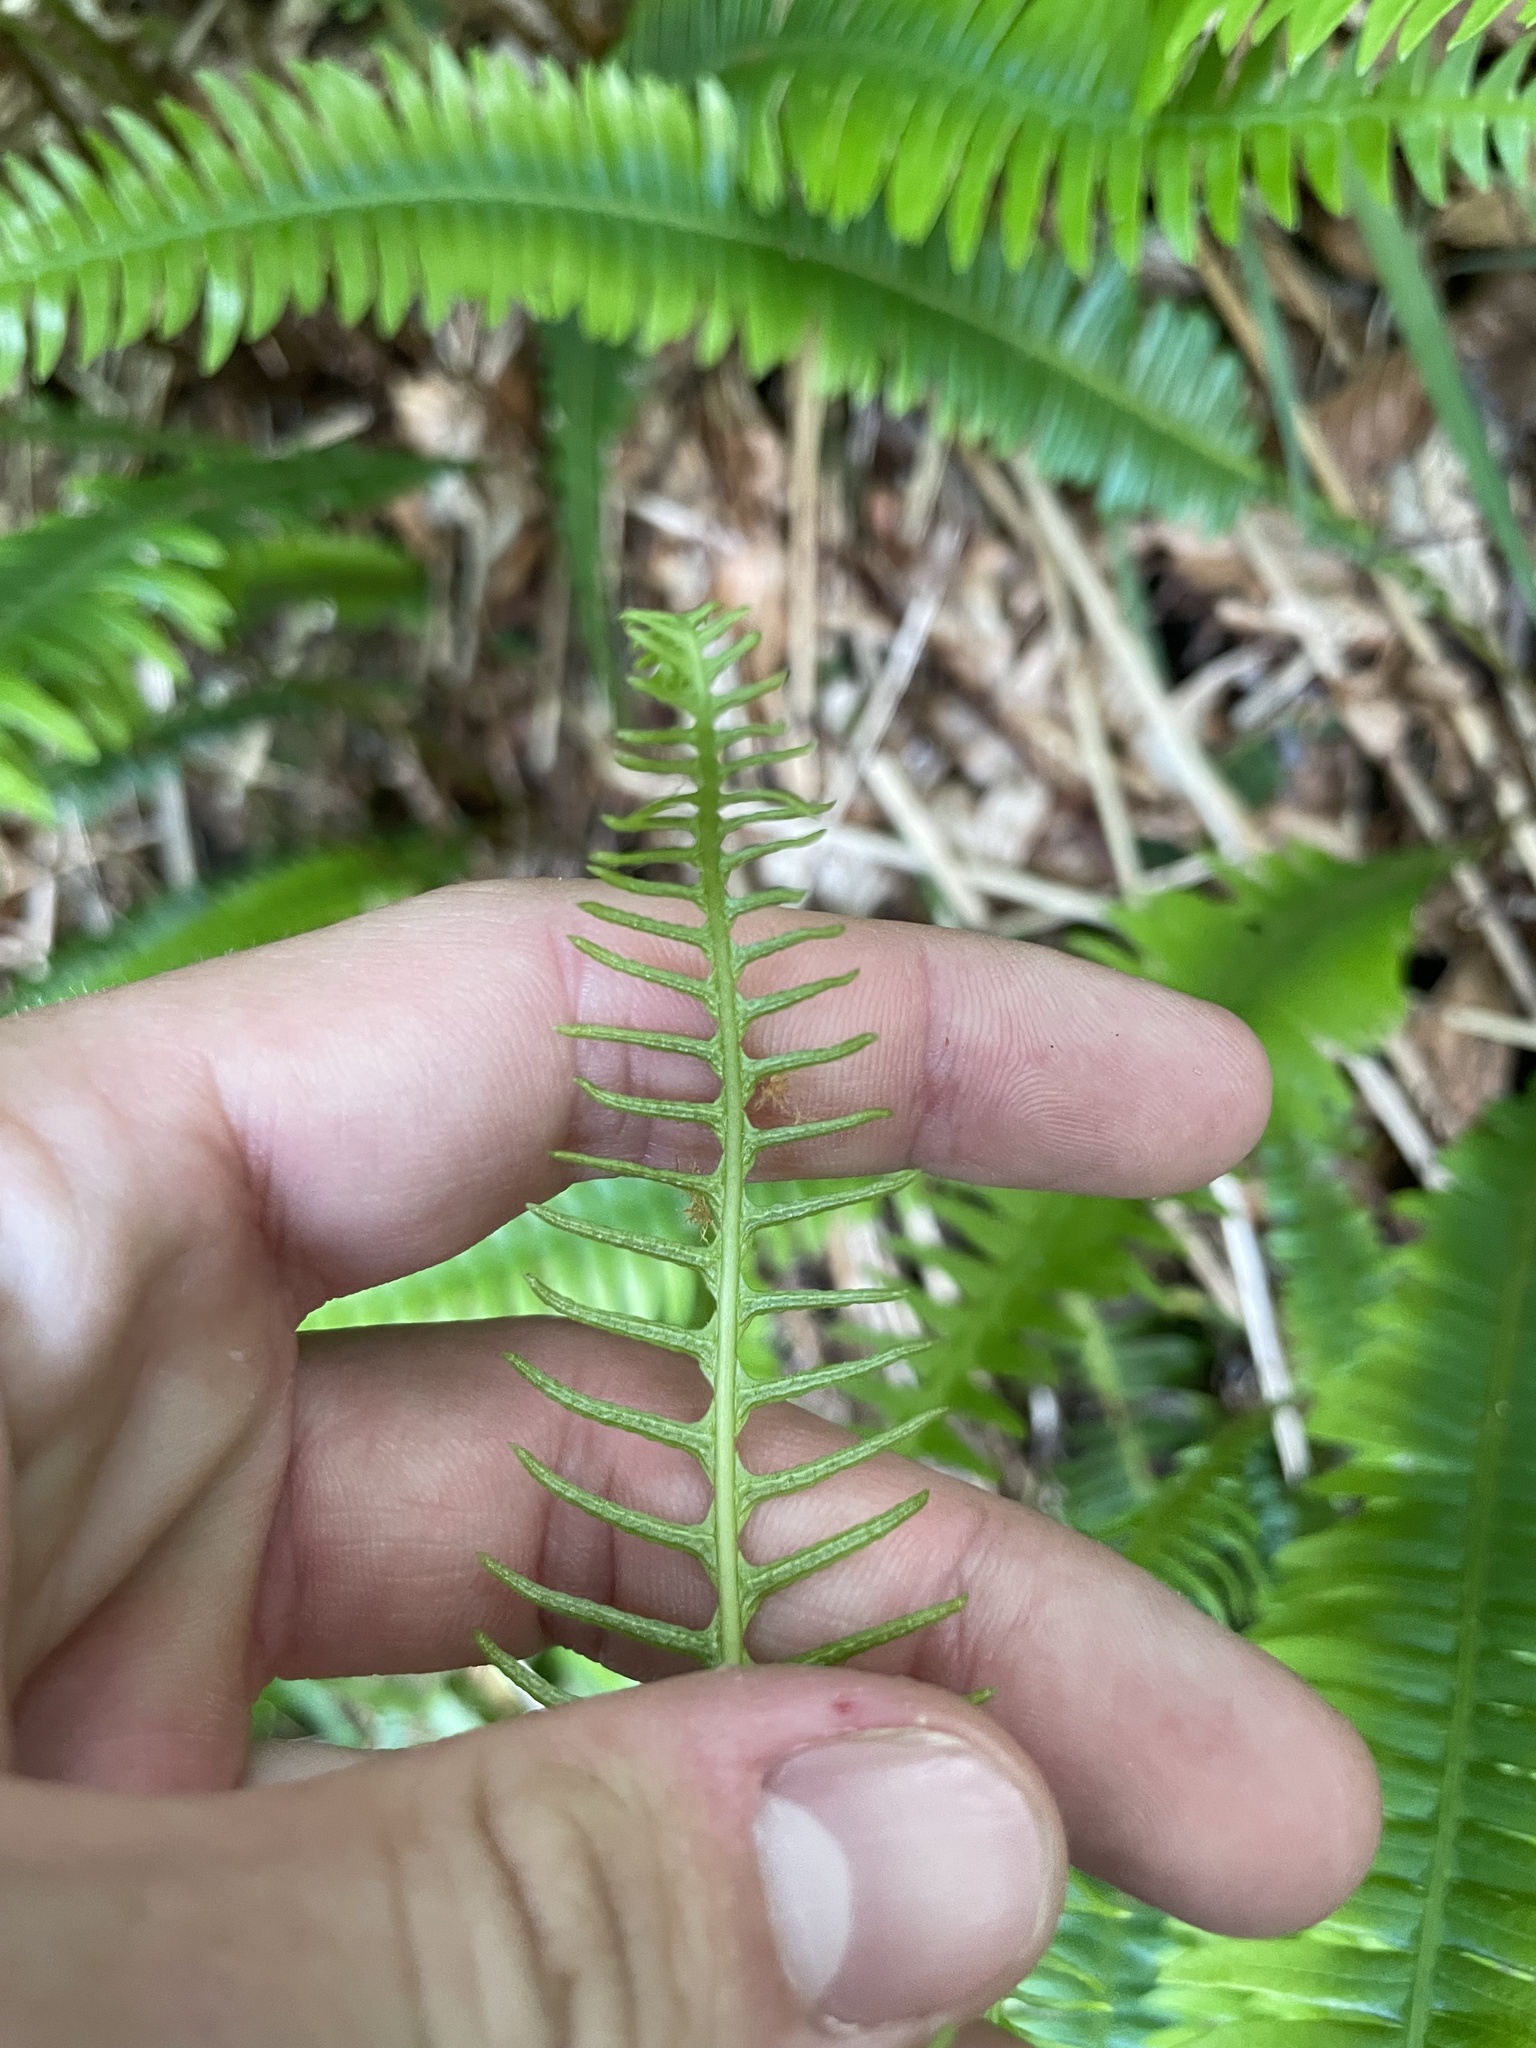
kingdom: Plantae
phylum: Tracheophyta
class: Polypodiopsida
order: Polypodiales
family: Blechnaceae
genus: Struthiopteris
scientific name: Struthiopteris spicant
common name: Deer fern
